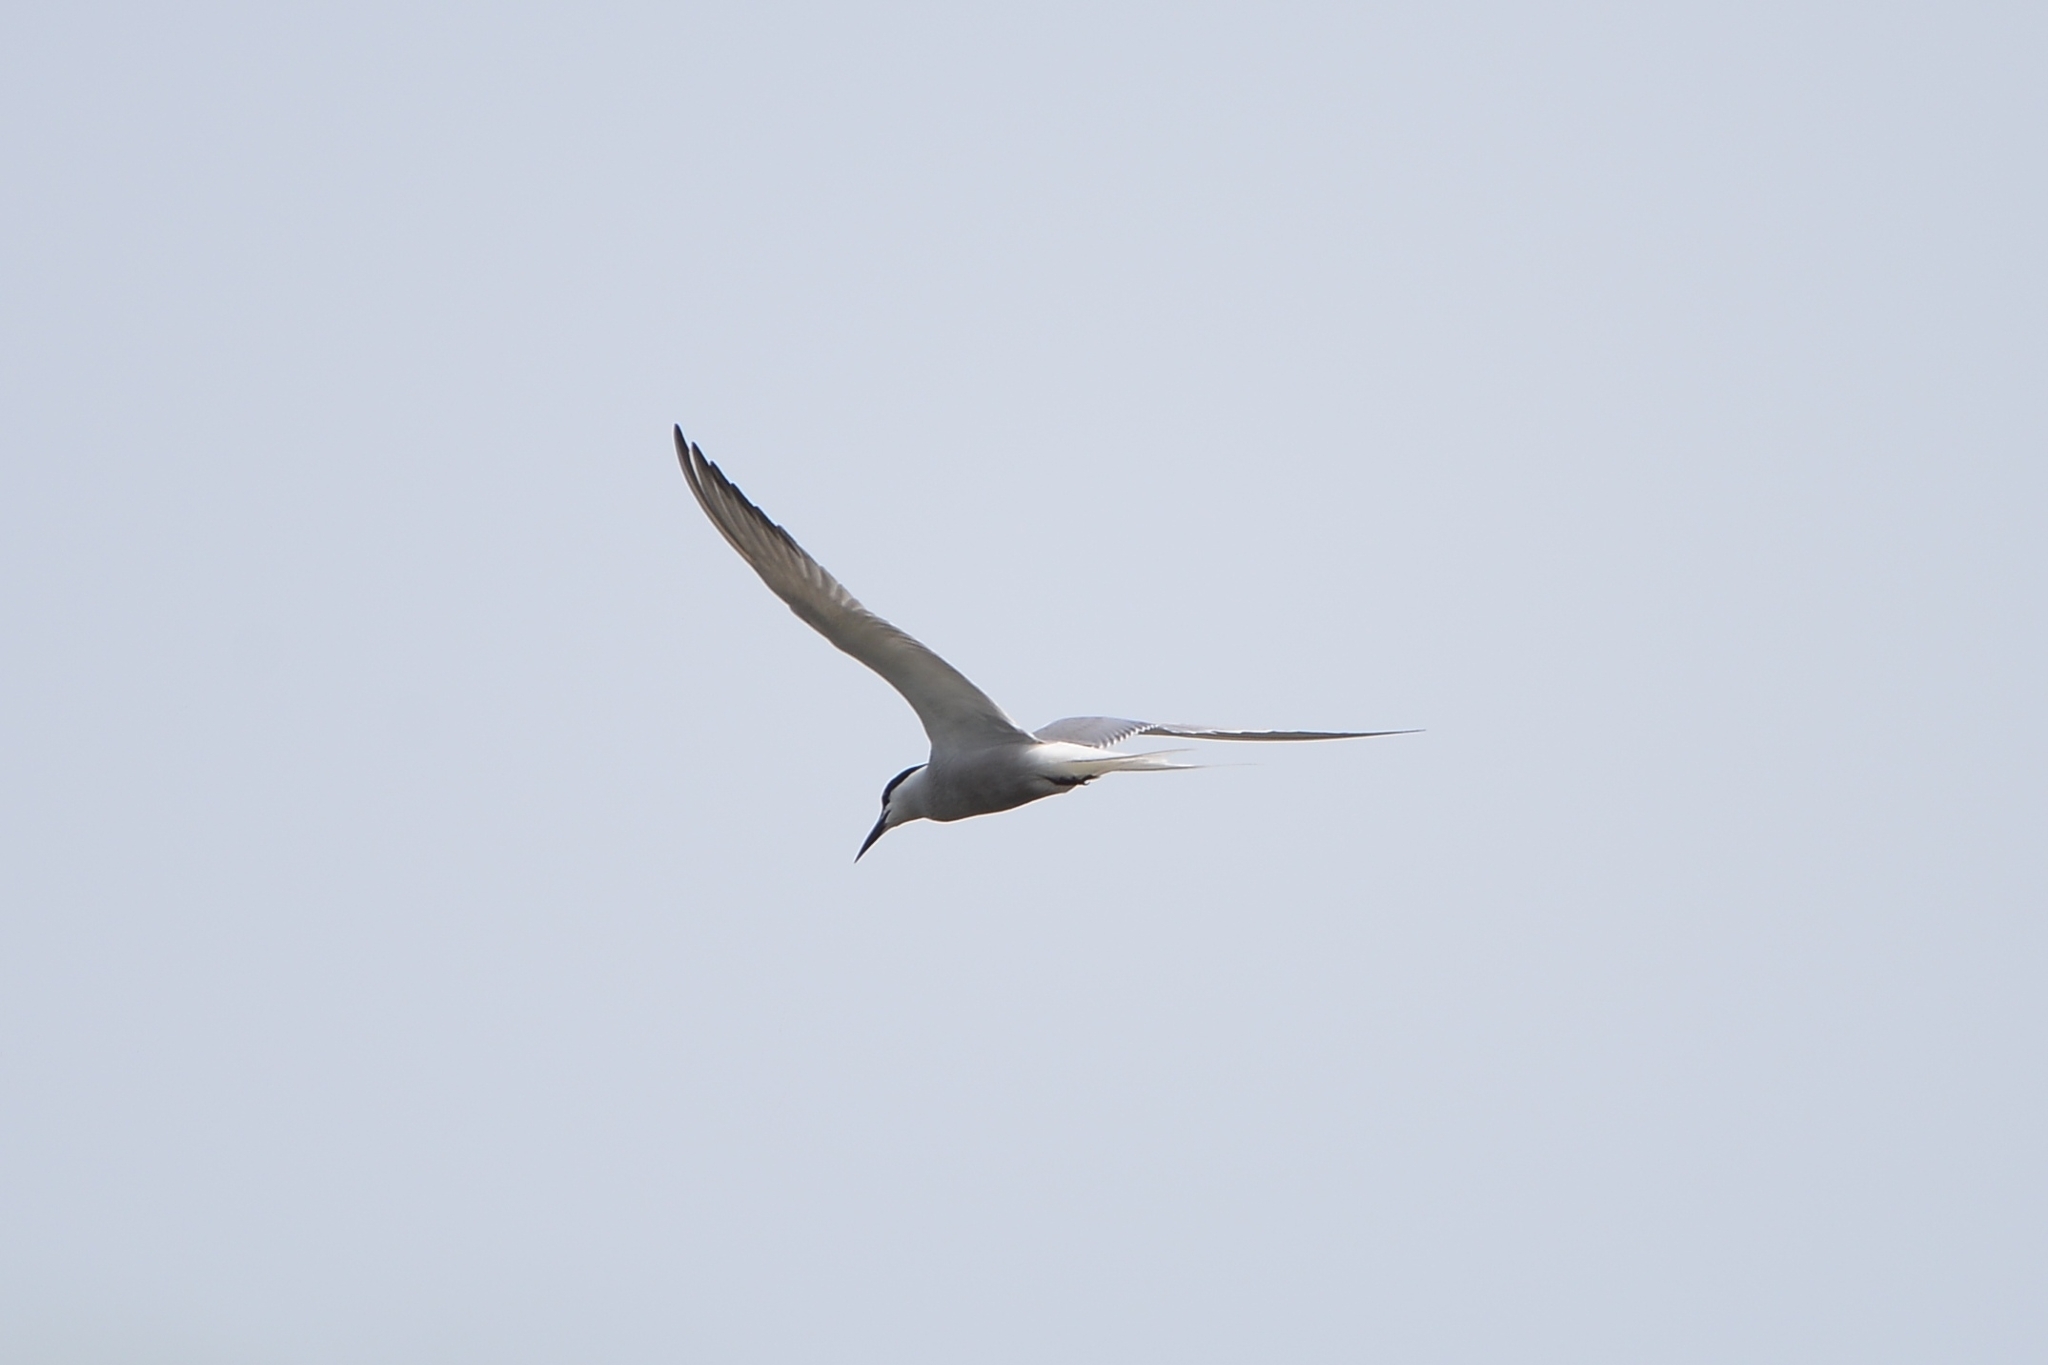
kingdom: Animalia
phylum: Chordata
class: Aves
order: Charadriiformes
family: Laridae
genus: Sterna
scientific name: Sterna hirundo
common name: Common tern
